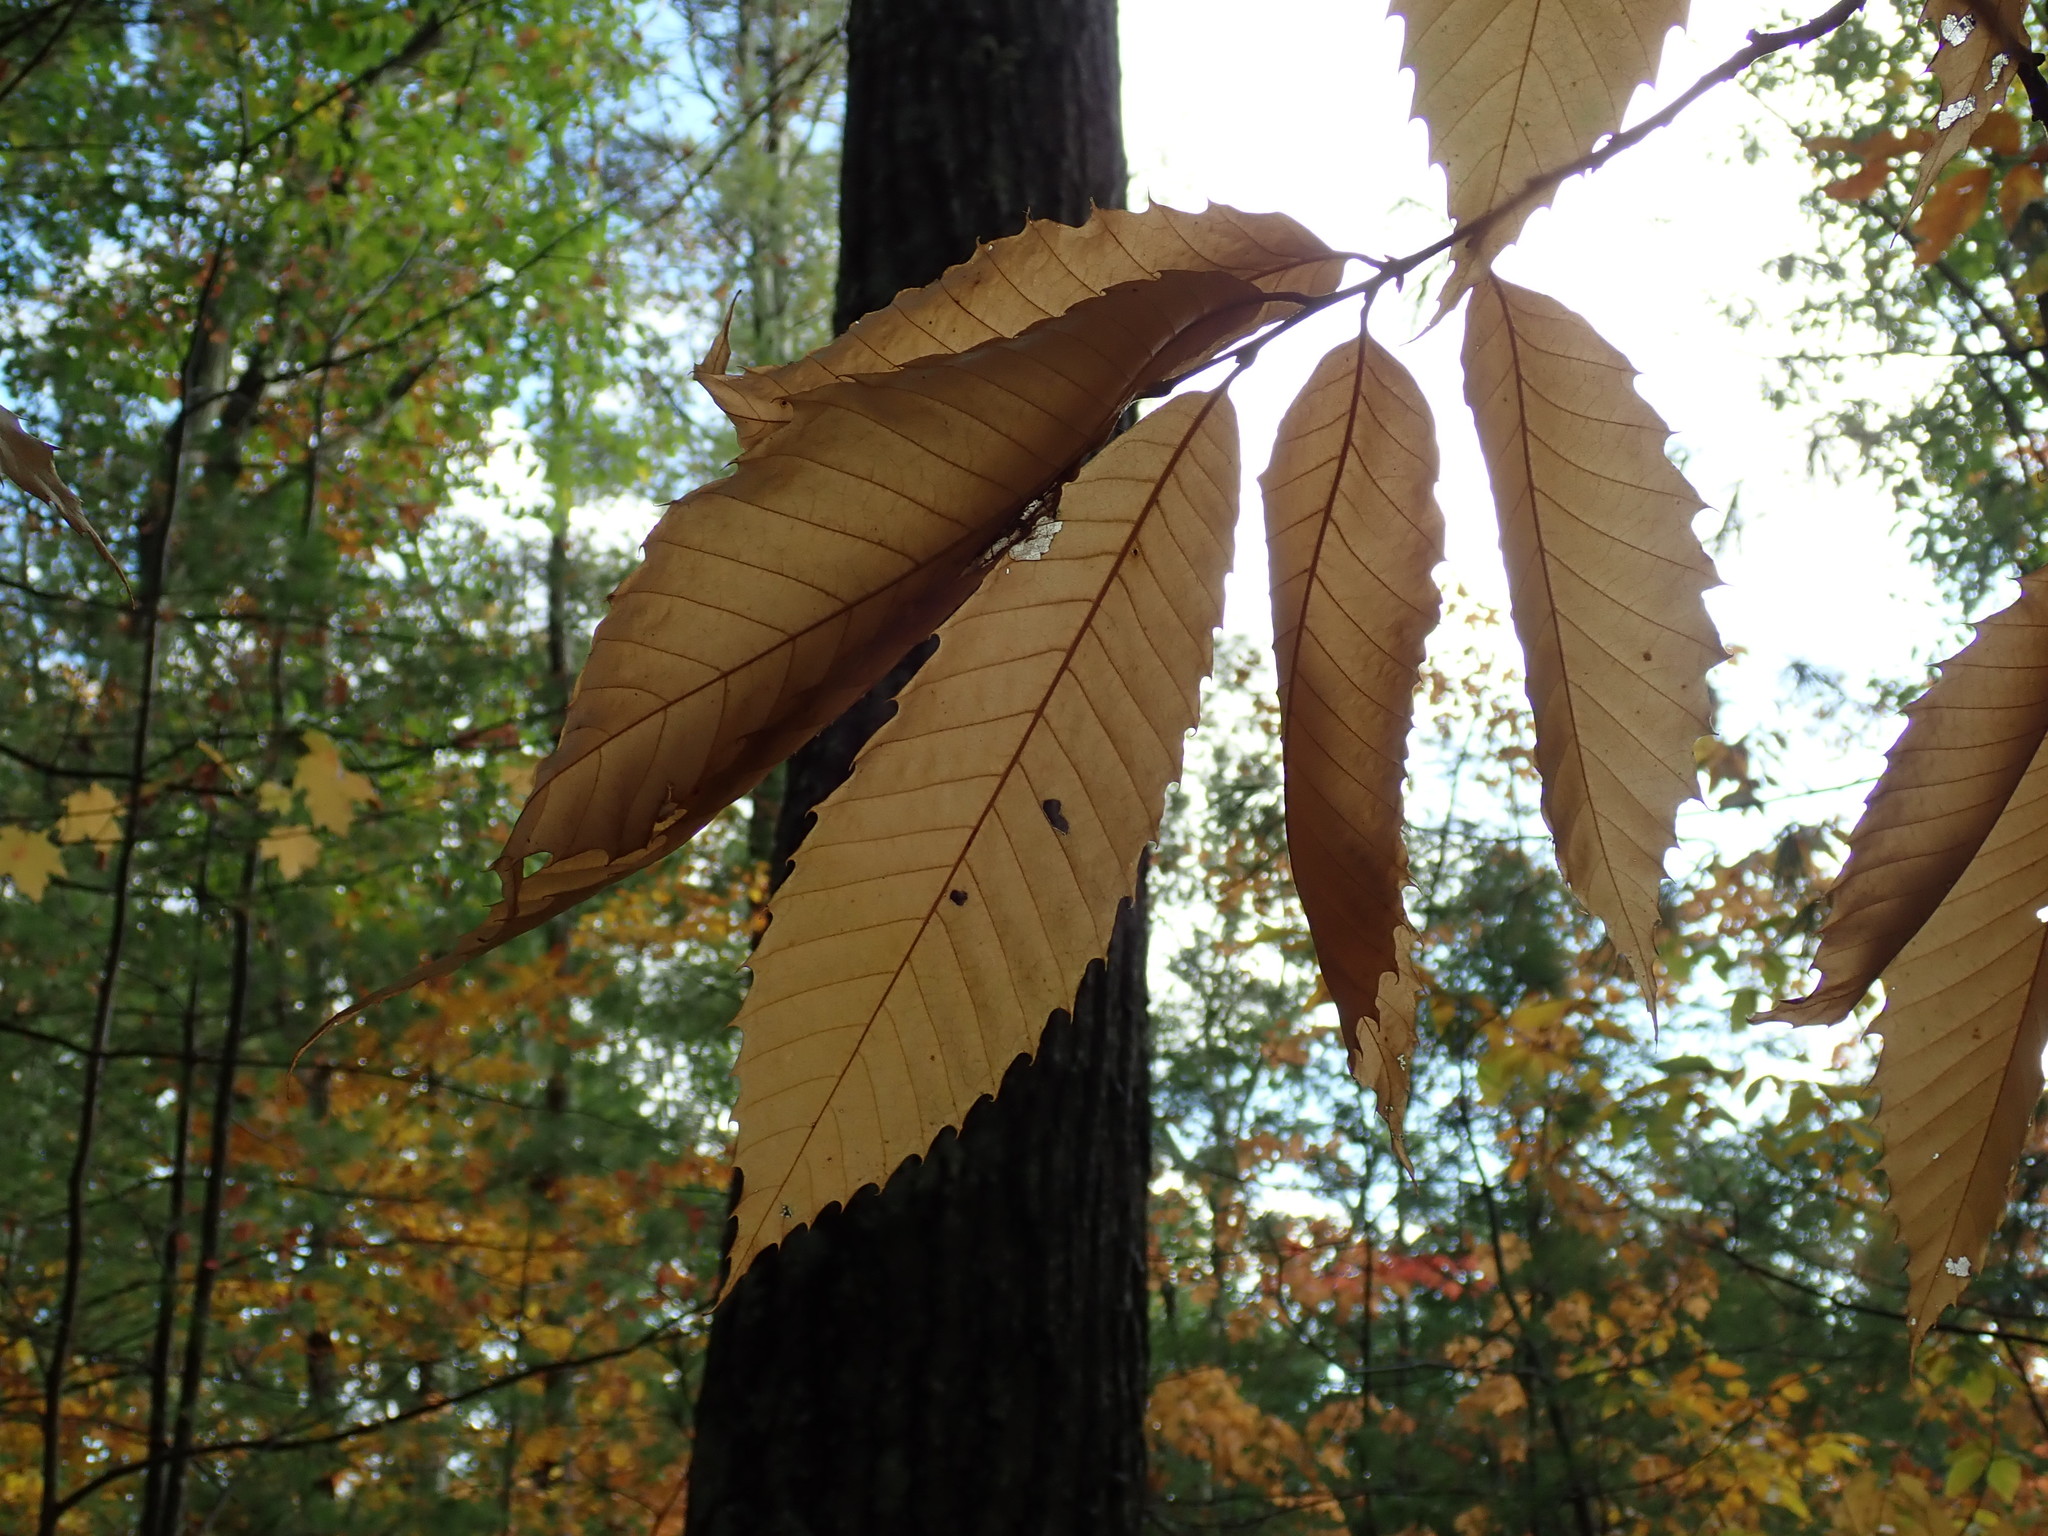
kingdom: Plantae
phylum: Tracheophyta
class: Magnoliopsida
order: Fagales
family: Fagaceae
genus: Castanea
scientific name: Castanea dentata
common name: American chestnut
